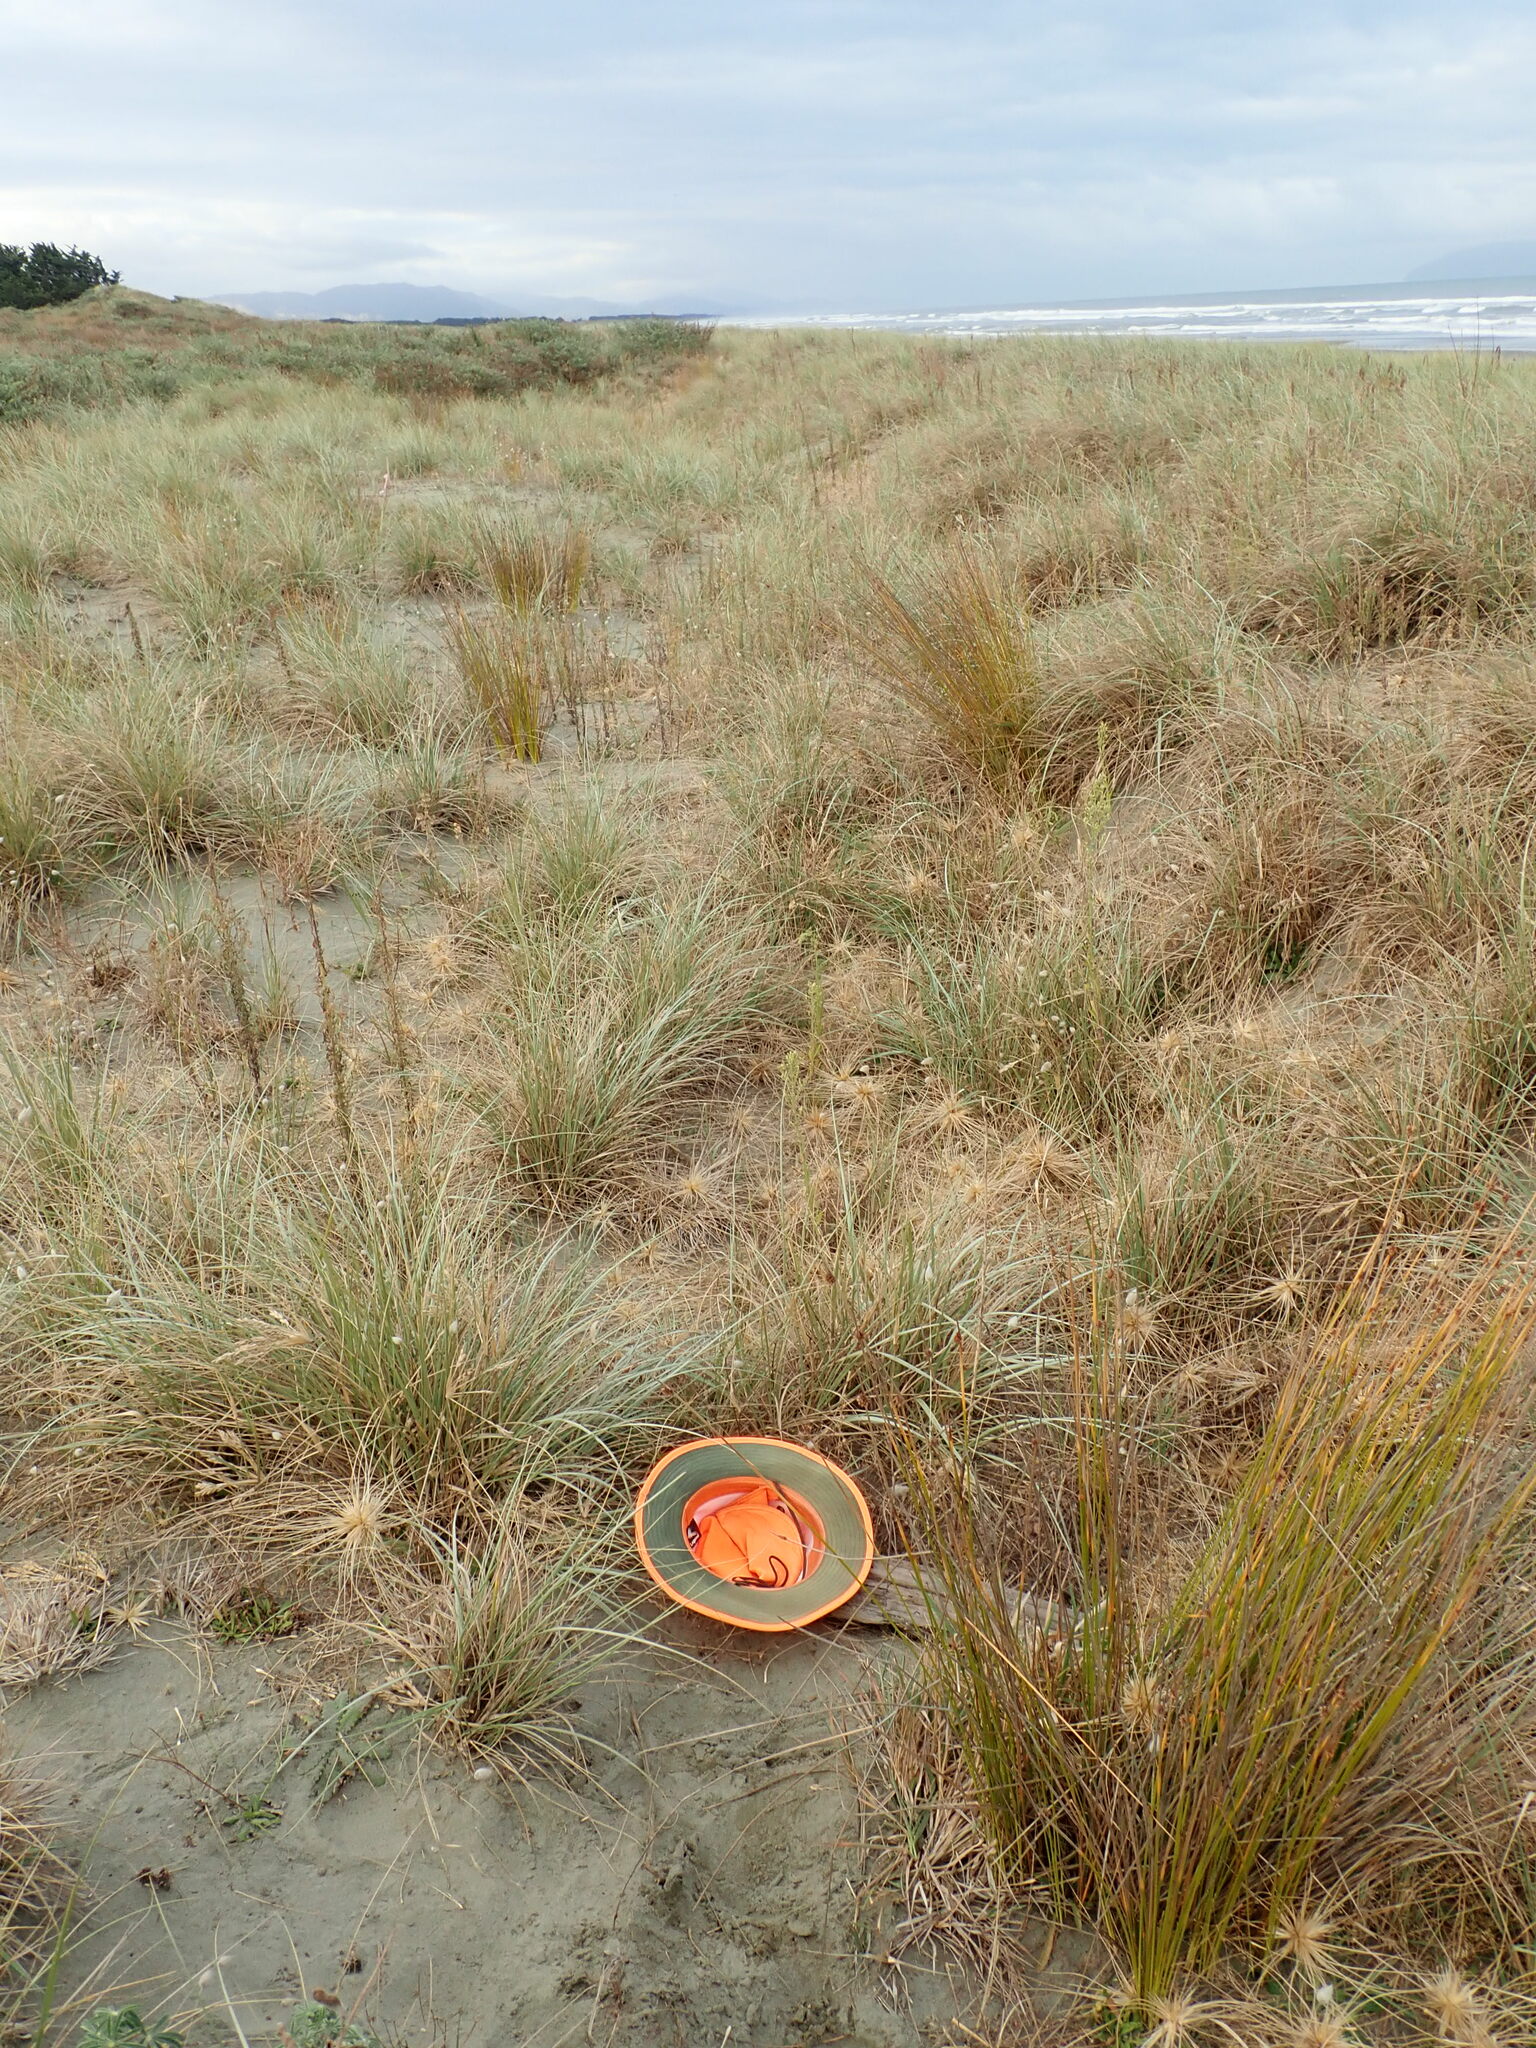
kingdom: Animalia
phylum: Arthropoda
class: Arachnida
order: Araneae
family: Theridiidae
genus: Latrodectus
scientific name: Latrodectus katipo
